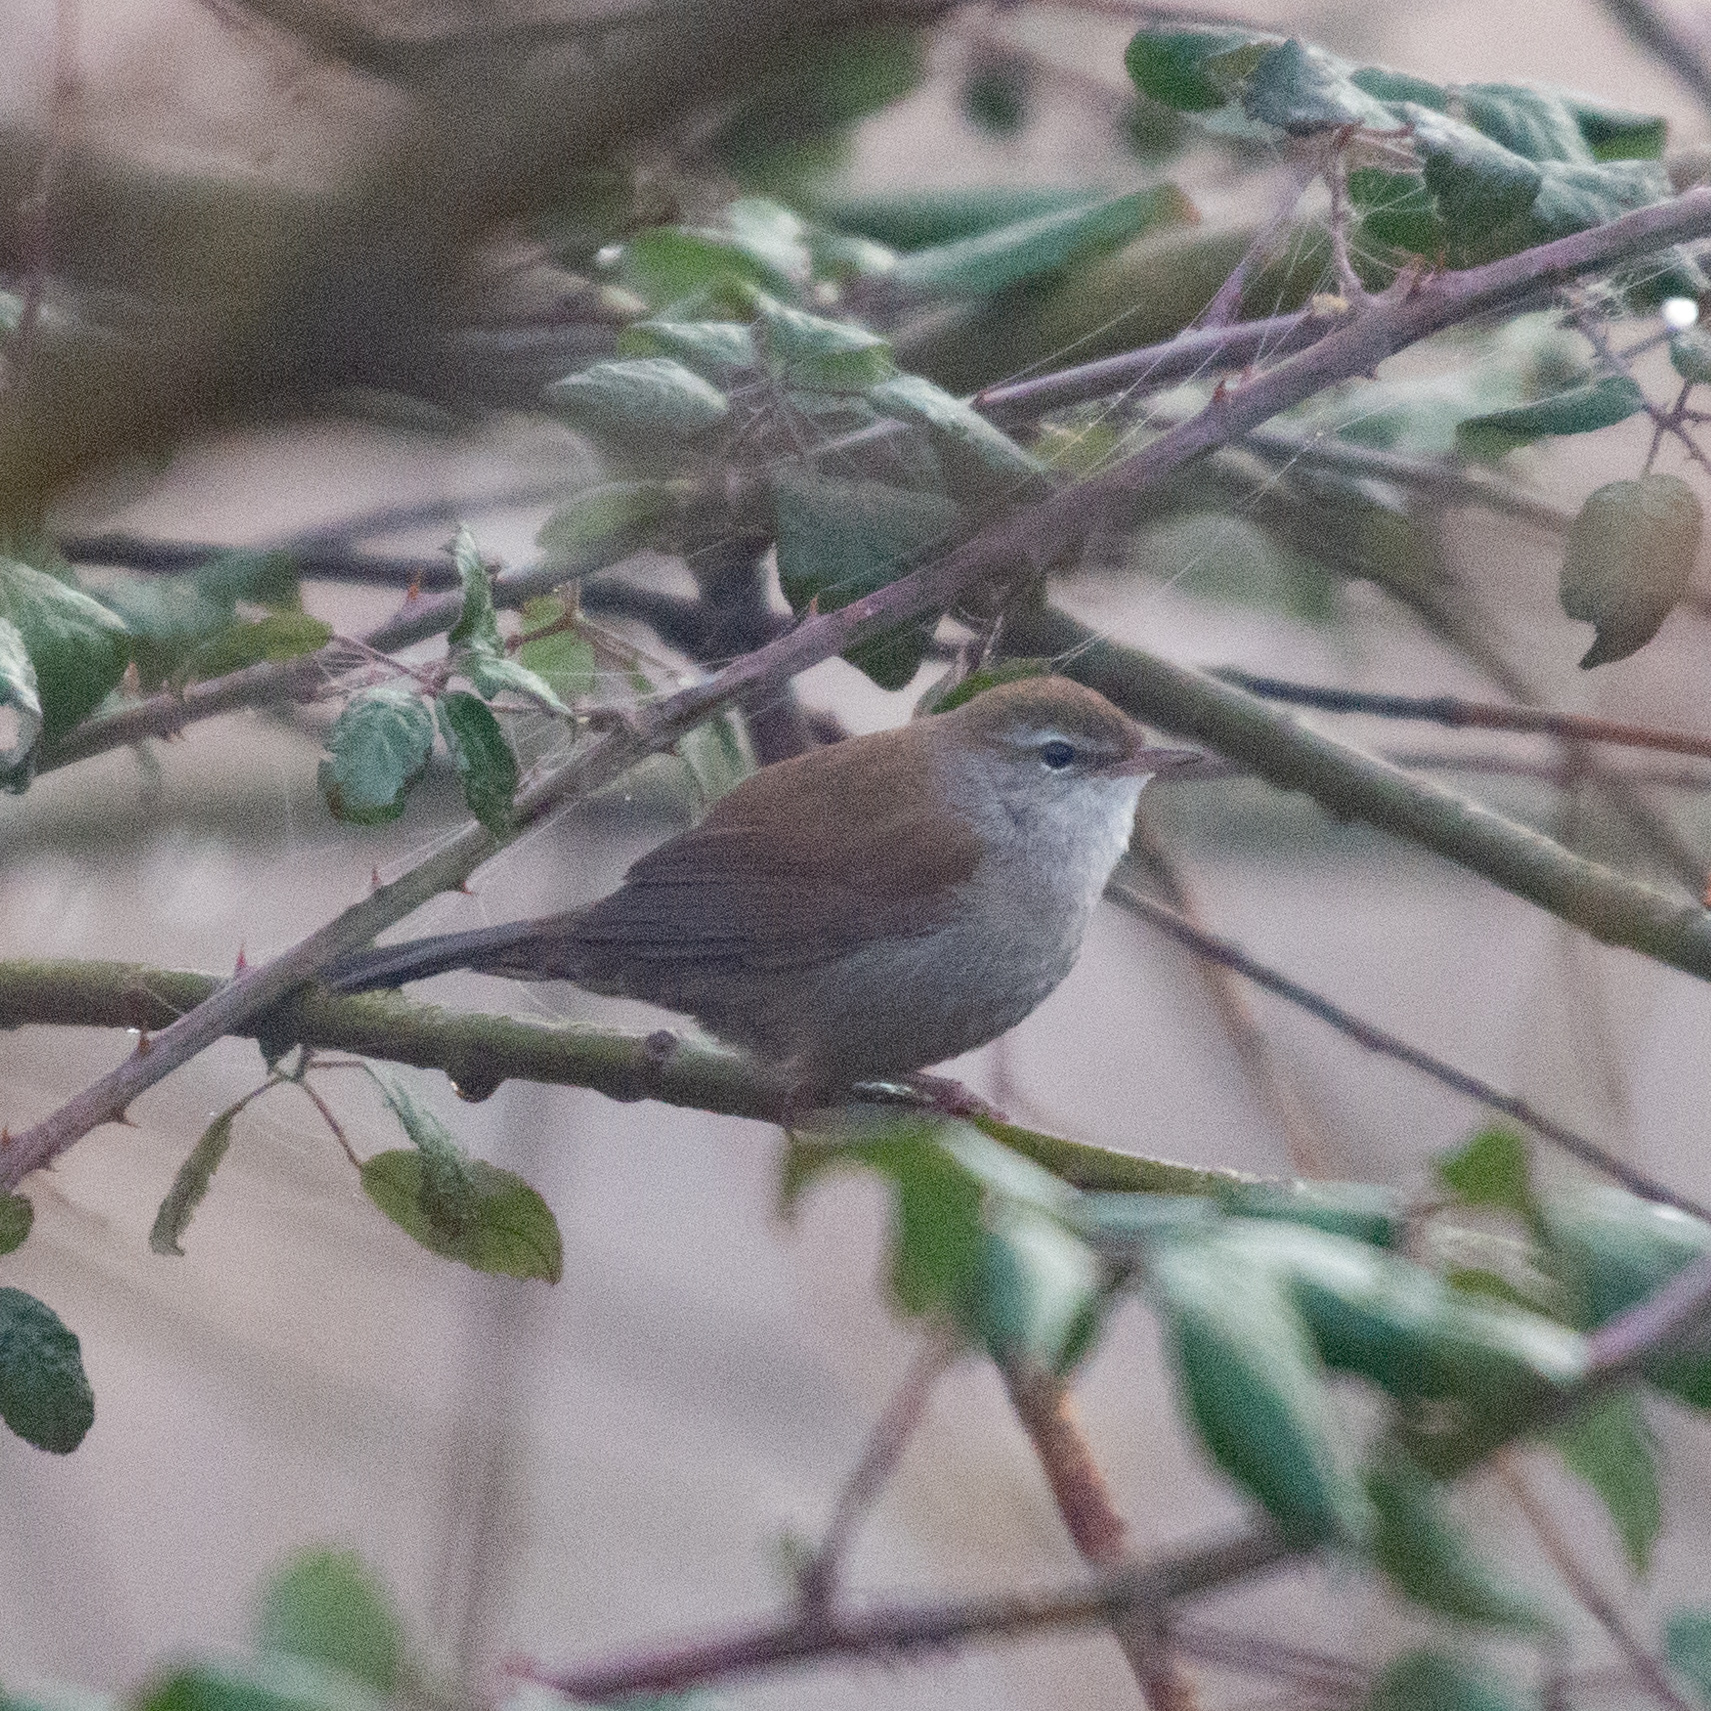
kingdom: Animalia
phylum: Chordata
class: Aves
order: Passeriformes
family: Cettiidae
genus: Cettia
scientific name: Cettia cetti
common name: Cetti's warbler
